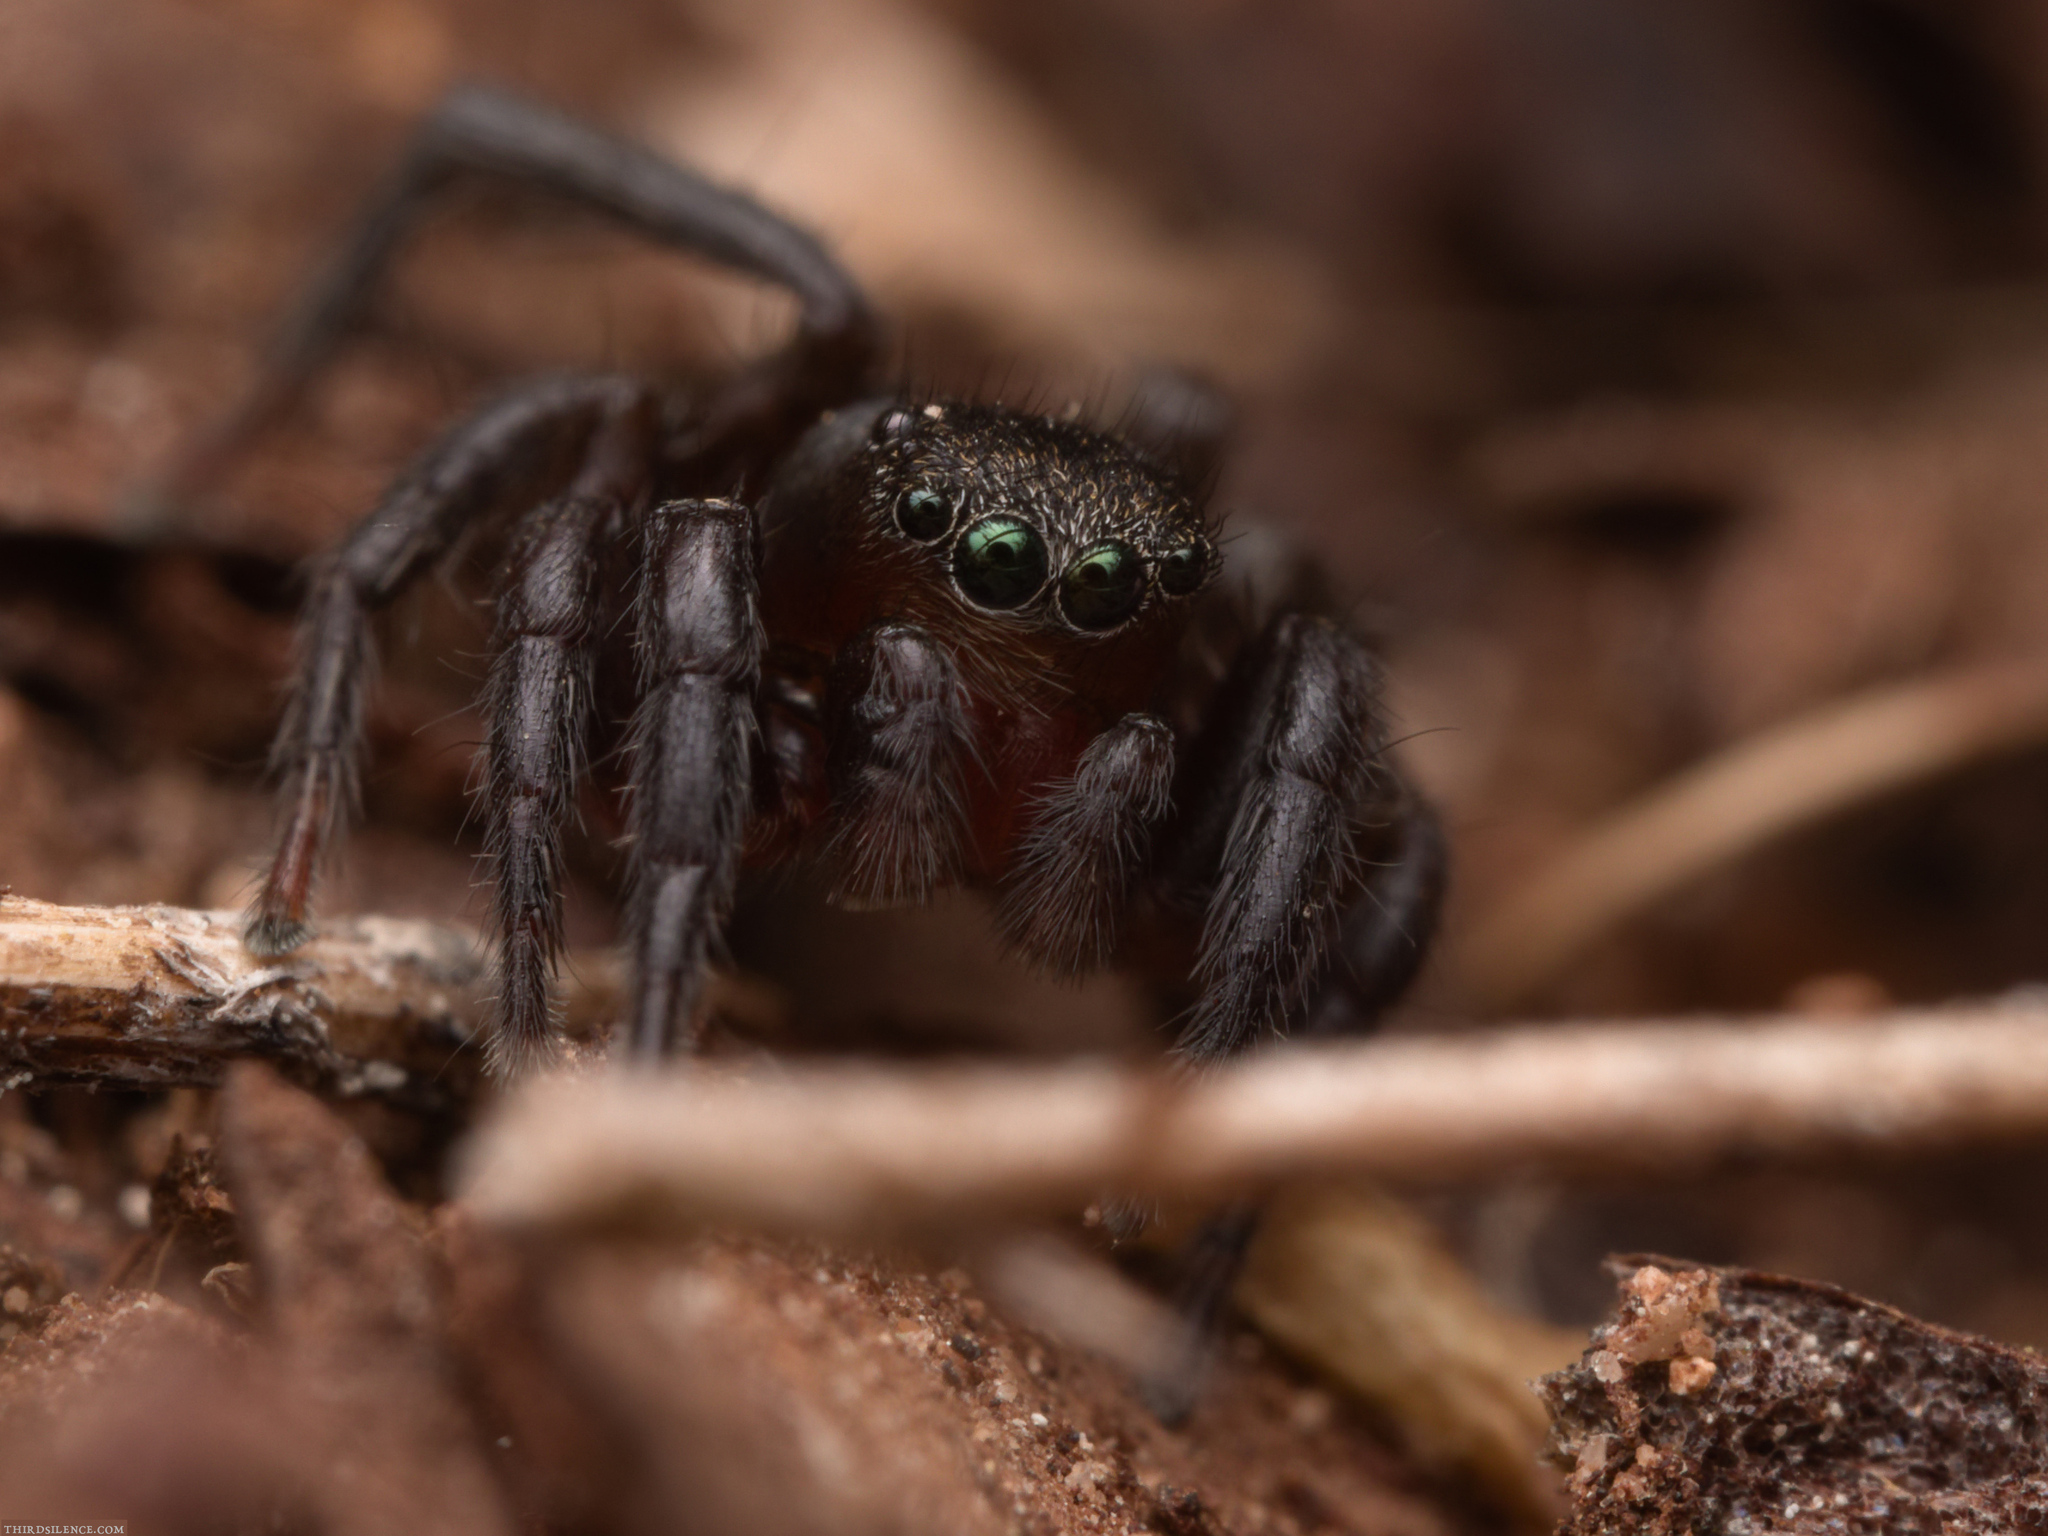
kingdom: Animalia
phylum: Arthropoda
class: Arachnida
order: Araneae
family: Salticidae
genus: Phlegra
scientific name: Phlegra fasciata
